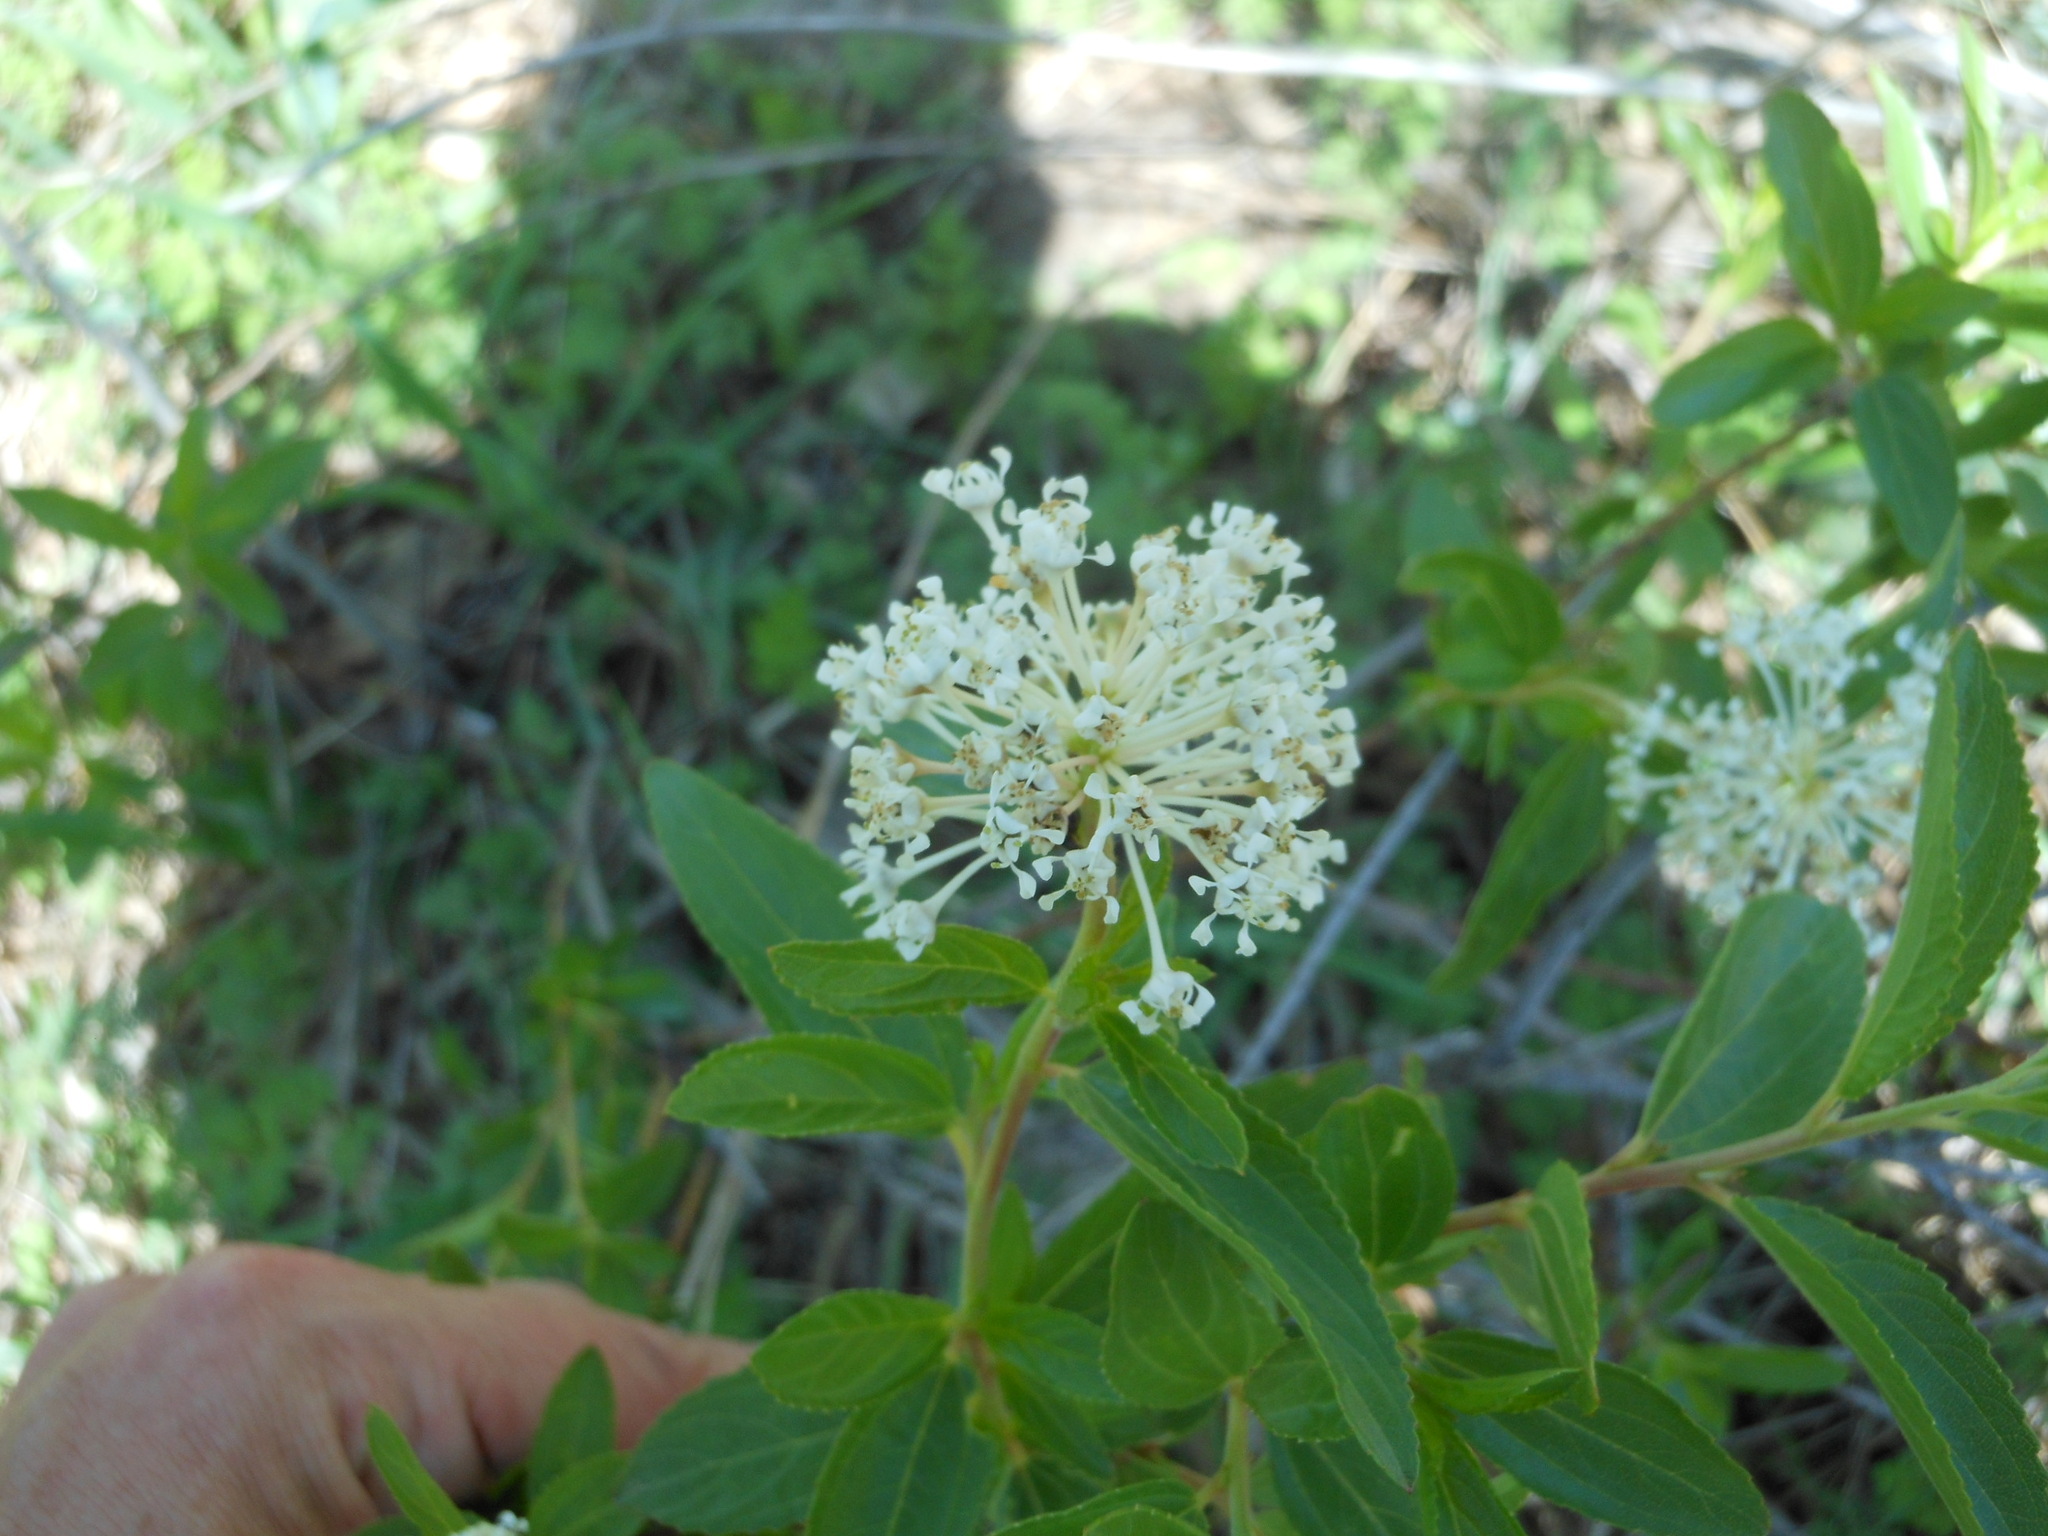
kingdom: Plantae
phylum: Tracheophyta
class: Magnoliopsida
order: Rosales
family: Rhamnaceae
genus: Ceanothus
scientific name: Ceanothus herbaceus
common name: Inland ceanothus
